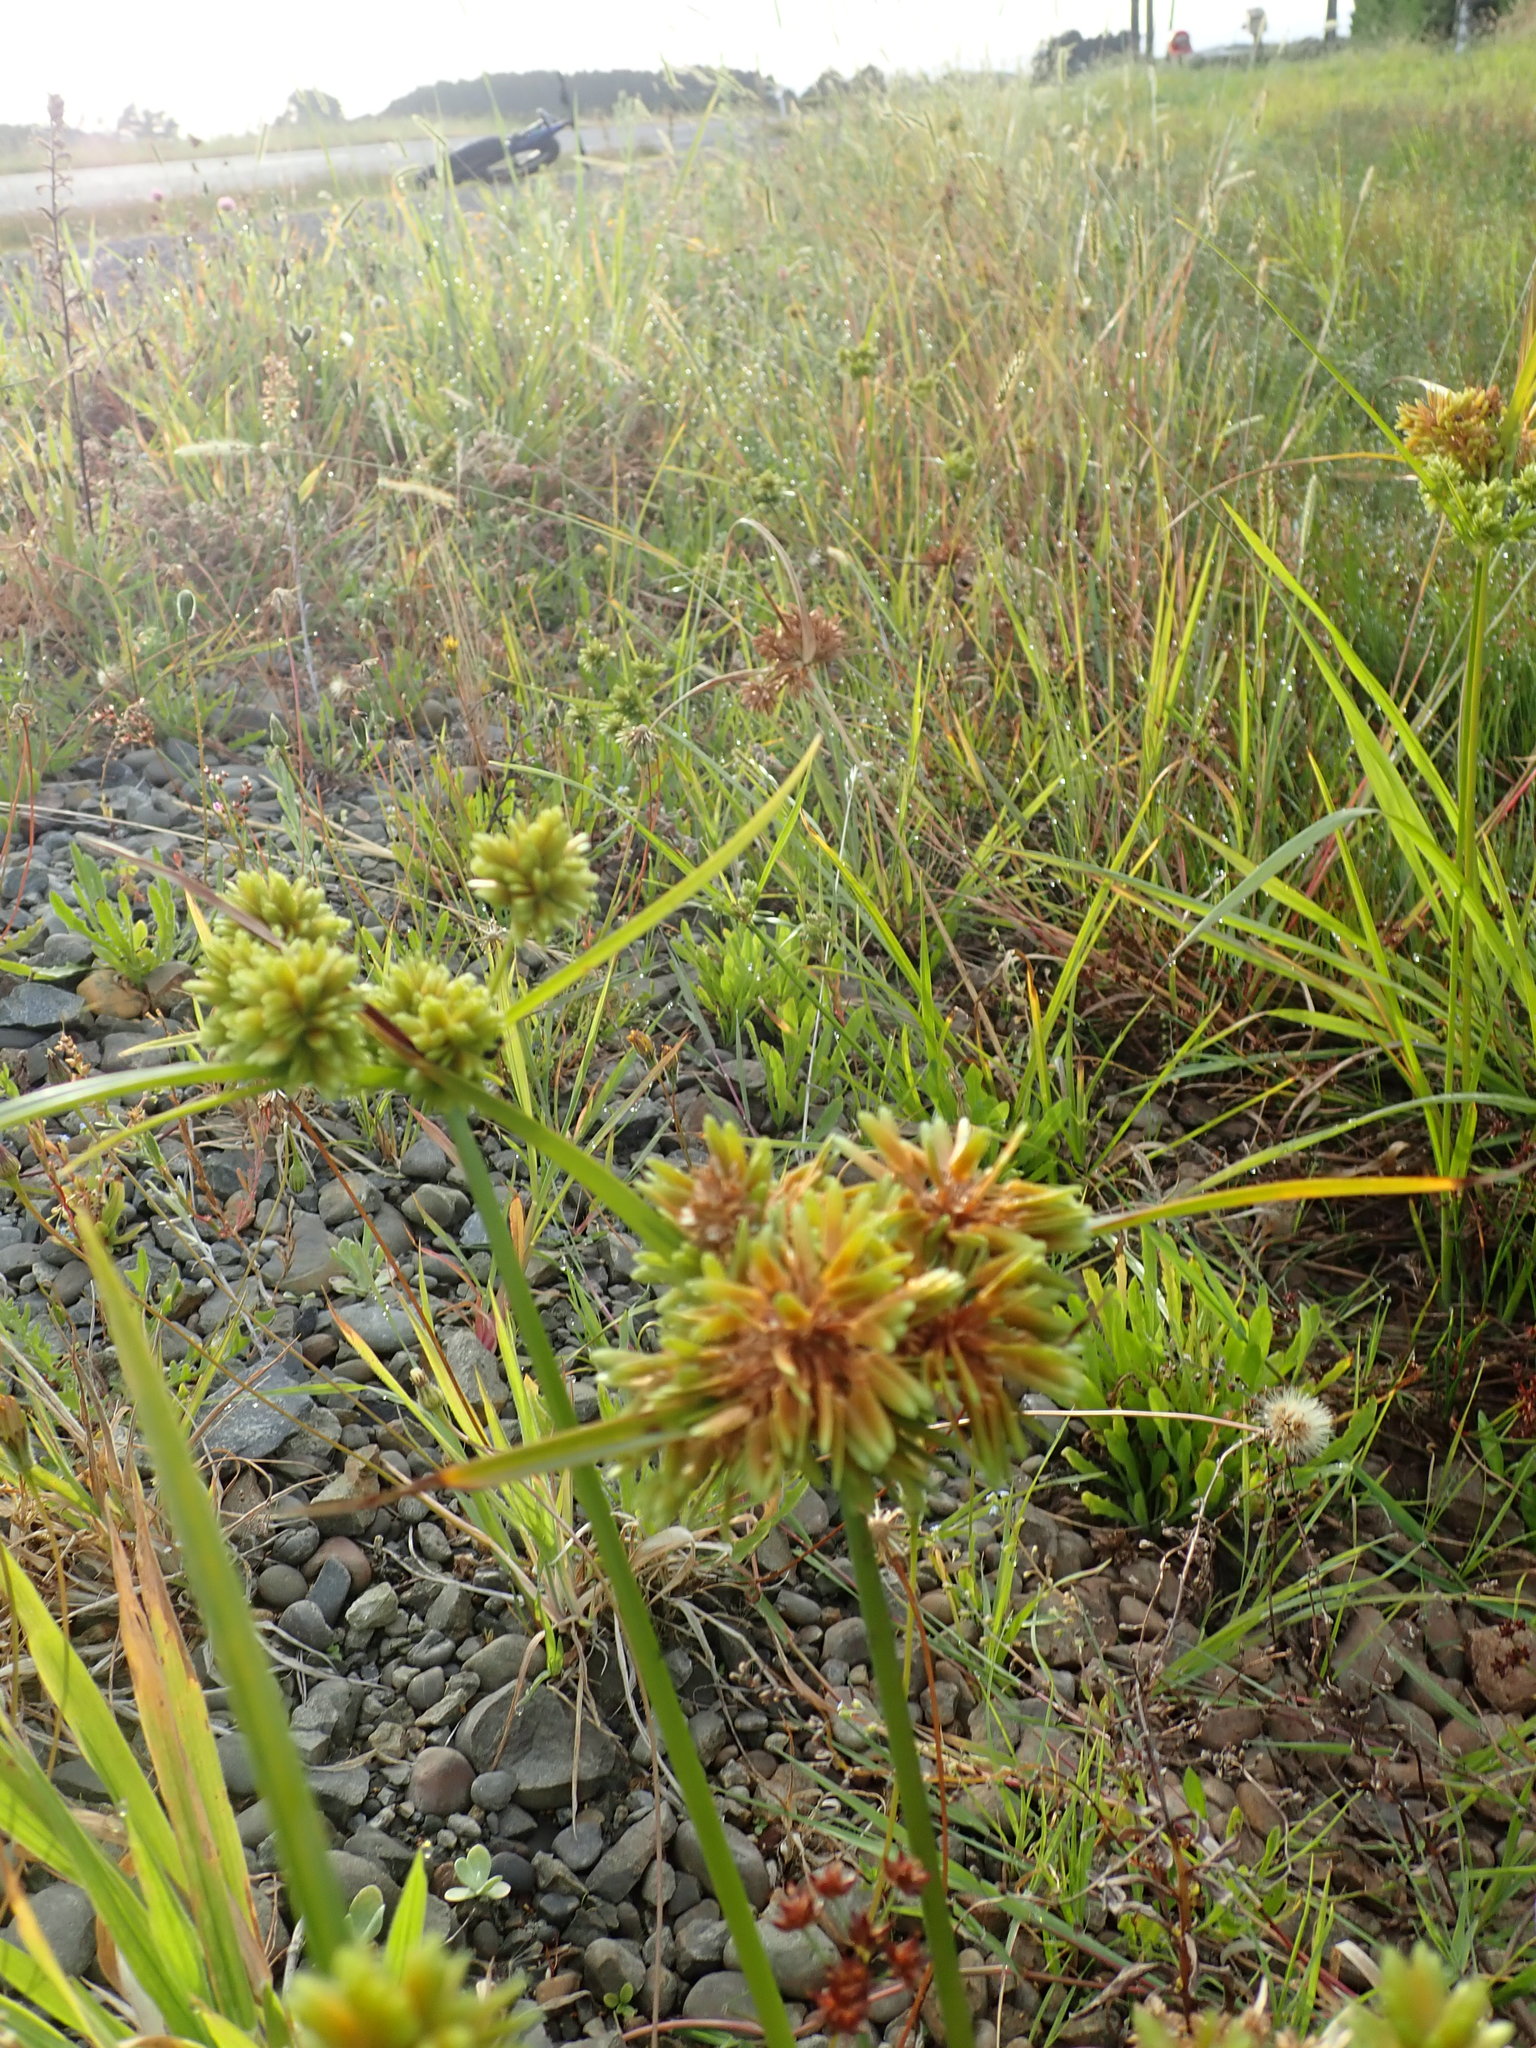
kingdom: Plantae
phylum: Tracheophyta
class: Liliopsida
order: Poales
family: Cyperaceae
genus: Cyperus
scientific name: Cyperus eragrostis
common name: Tall flatsedge
